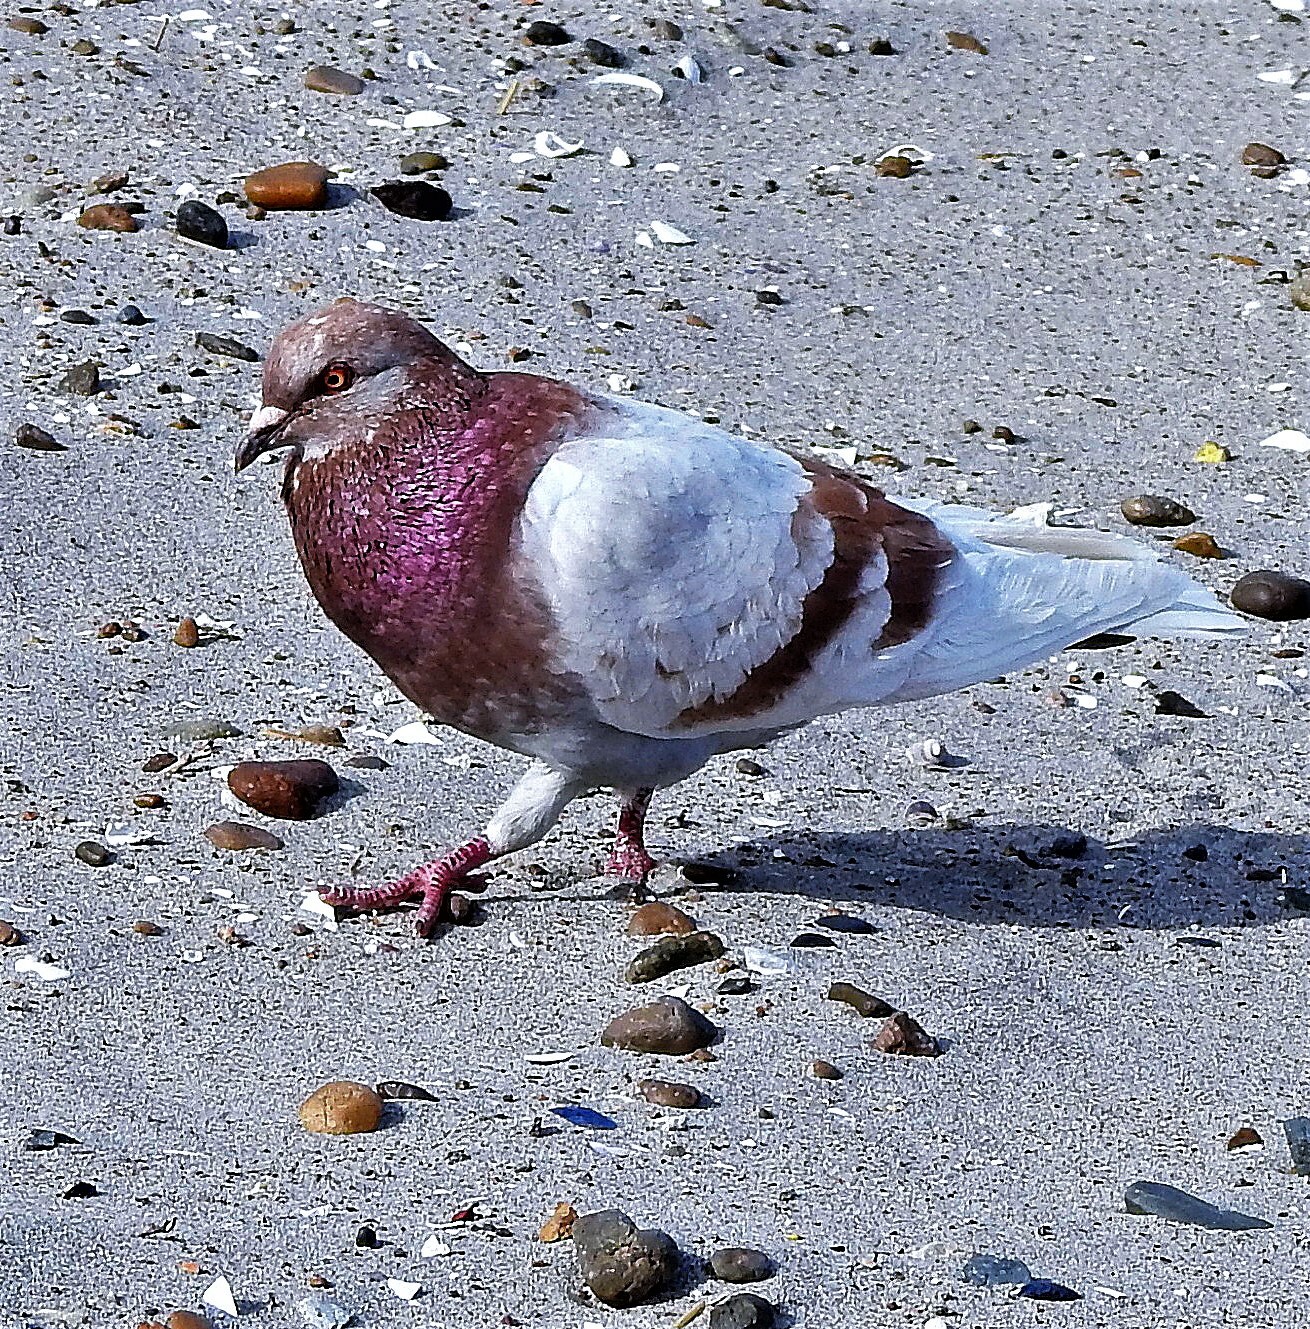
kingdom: Animalia
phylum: Chordata
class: Aves
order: Columbiformes
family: Columbidae
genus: Columba
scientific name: Columba livia
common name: Rock pigeon
